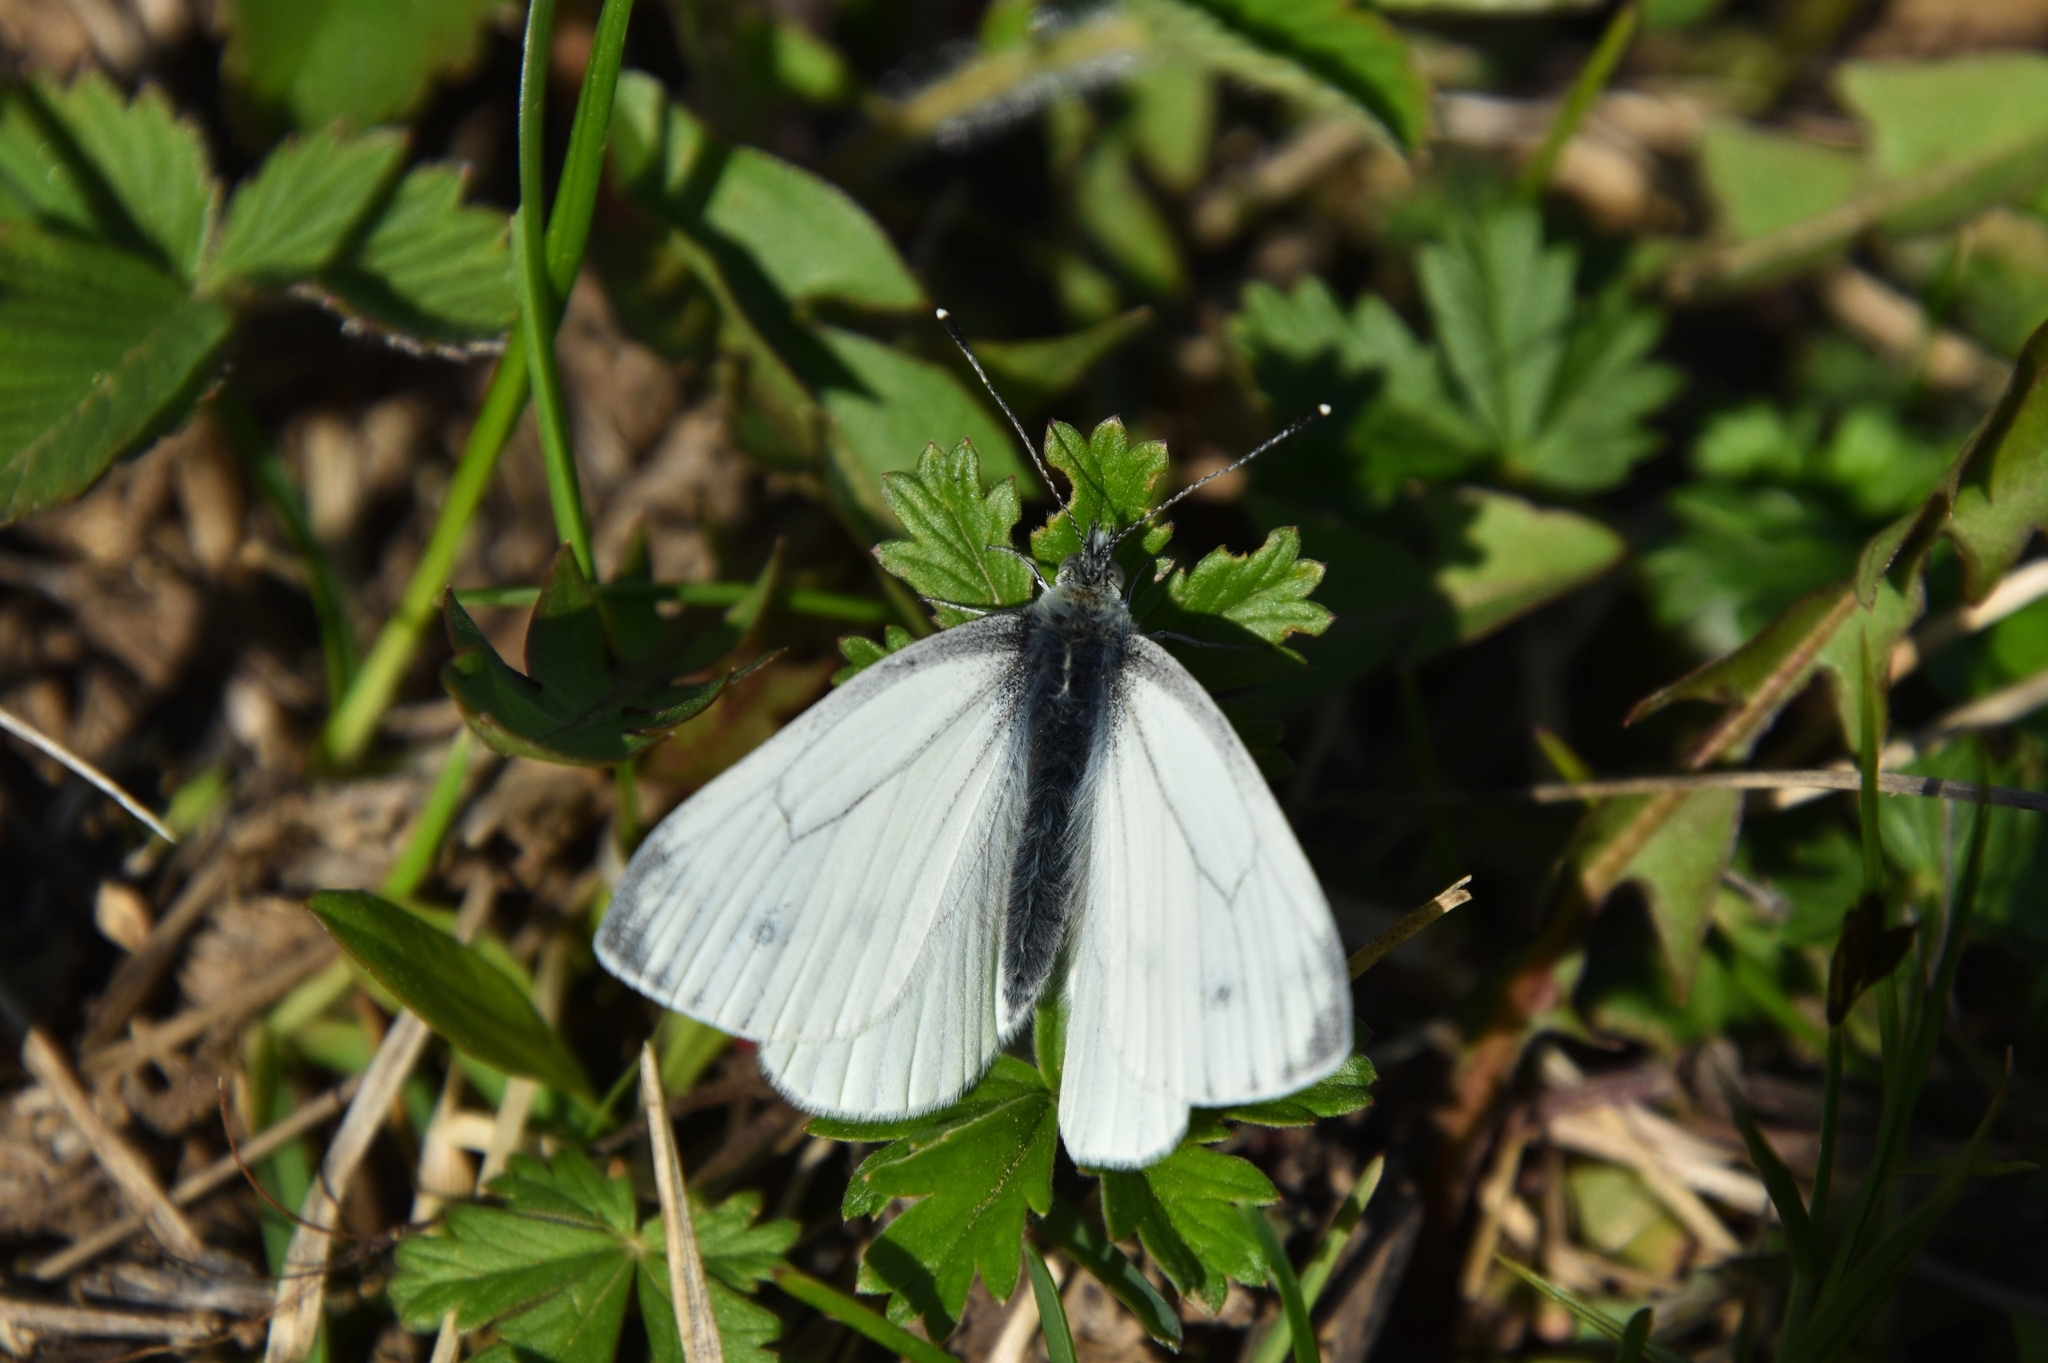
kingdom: Animalia
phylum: Arthropoda
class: Insecta
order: Lepidoptera
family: Pieridae
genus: Pieris
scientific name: Pieris napi
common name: Green-veined white
